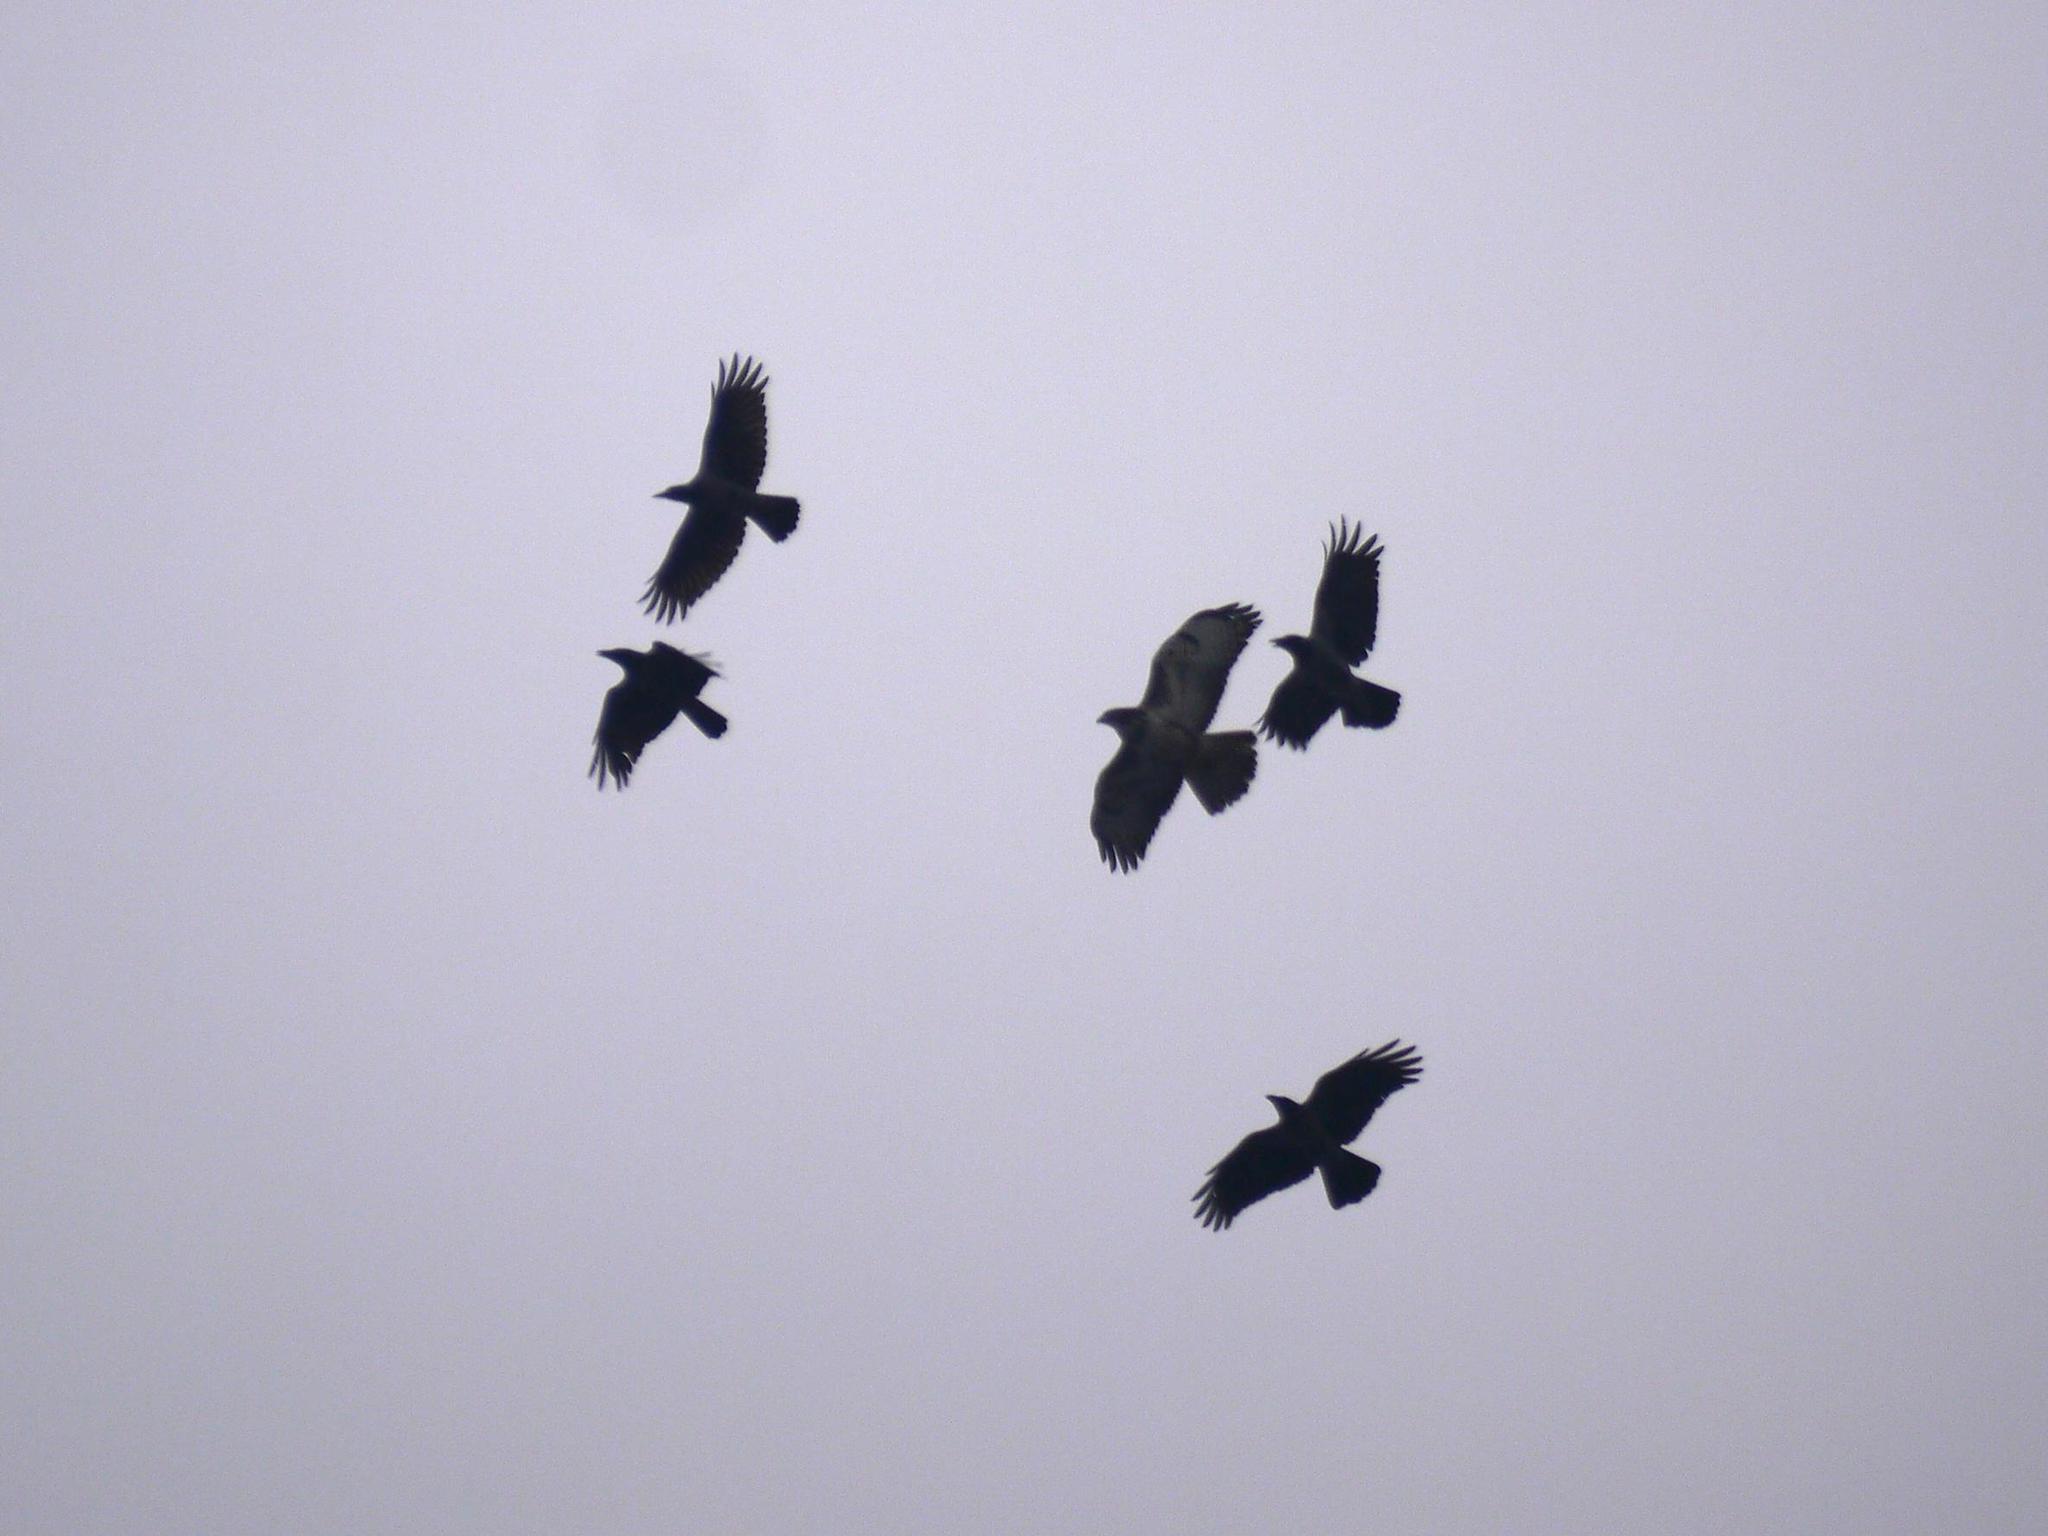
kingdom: Animalia
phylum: Chordata
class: Aves
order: Passeriformes
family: Corvidae
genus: Corvus
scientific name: Corvus cornix
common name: Hooded crow
